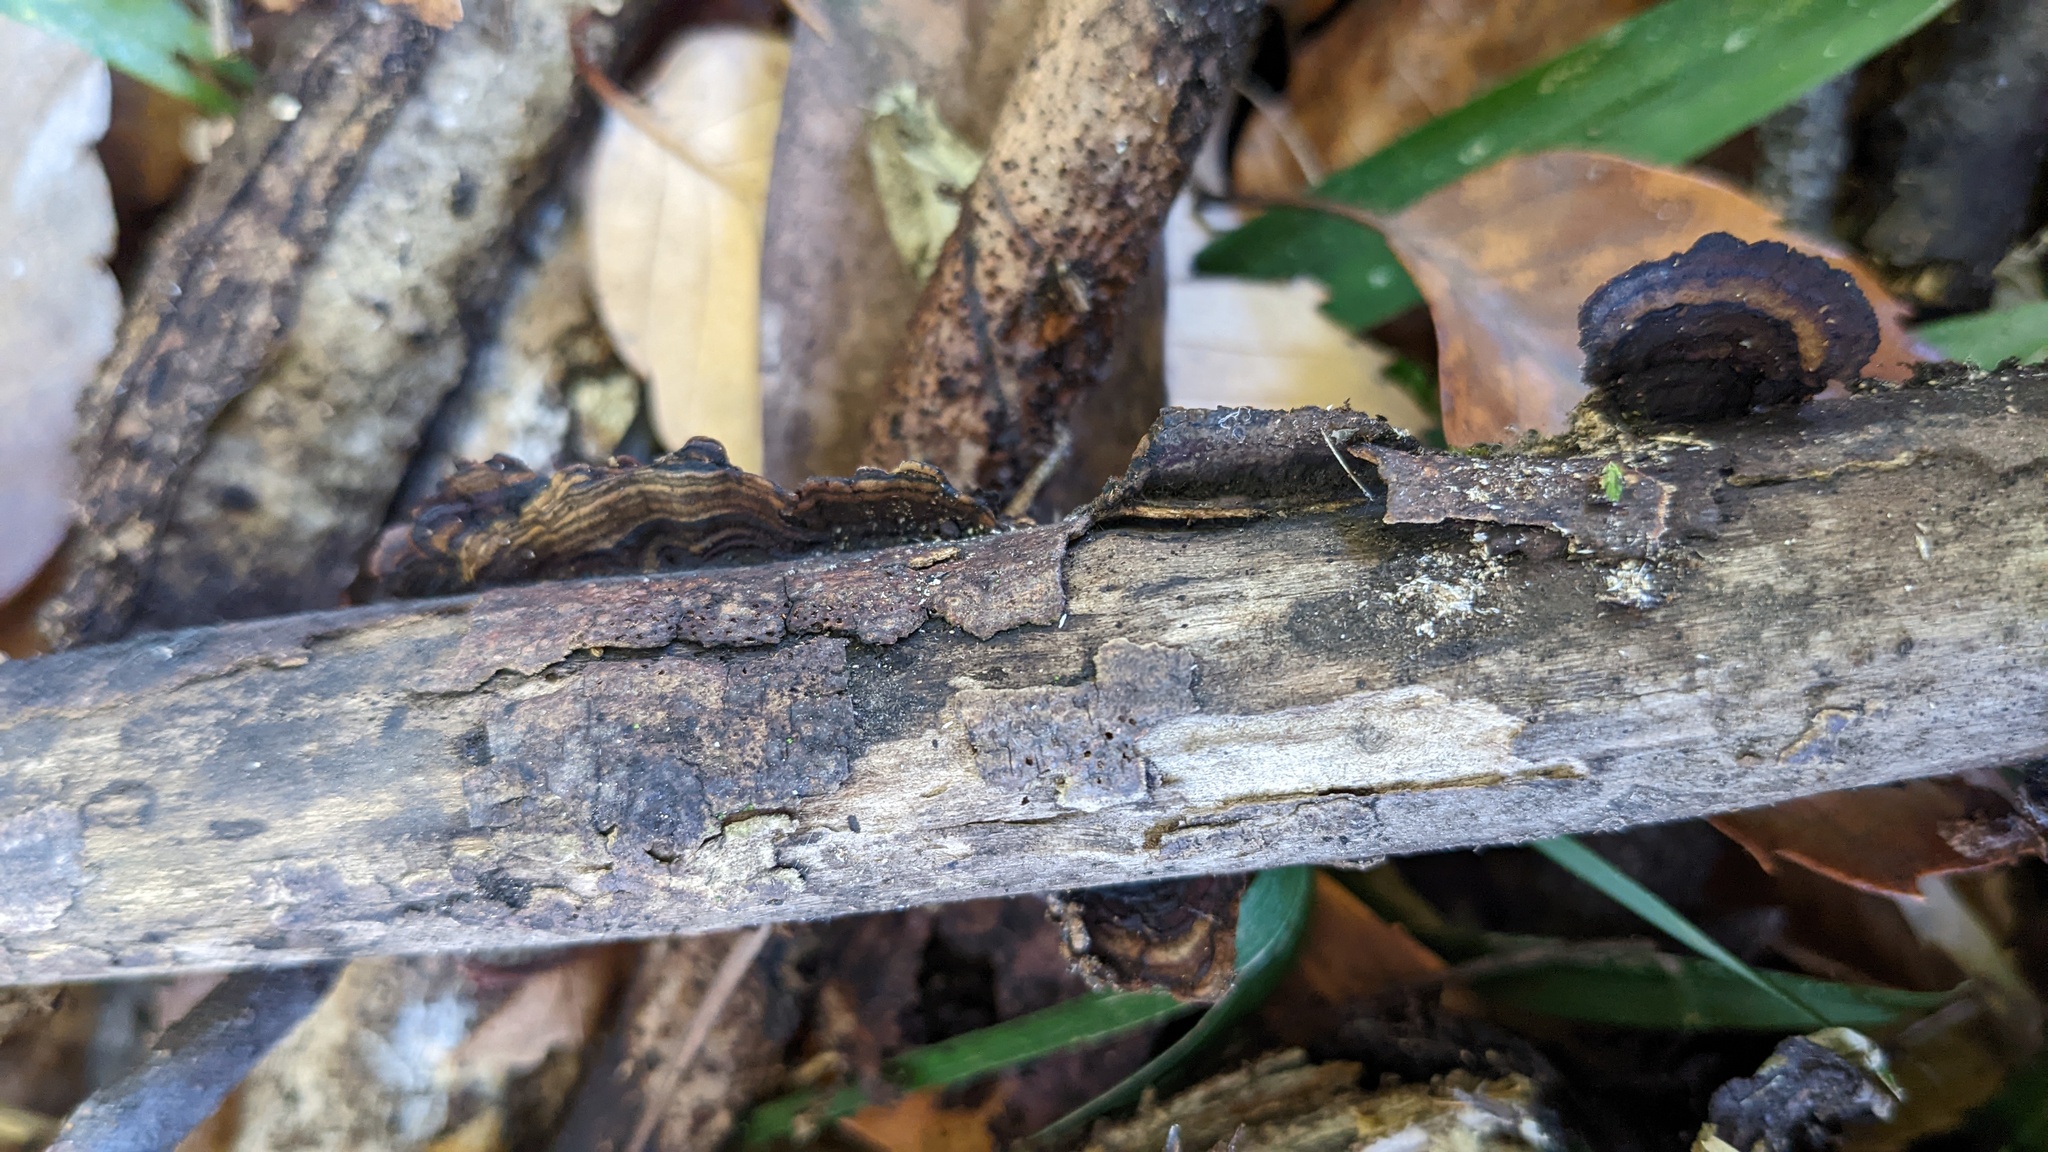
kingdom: Fungi
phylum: Basidiomycota
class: Agaricomycetes
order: Polyporales
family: Polyporaceae
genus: Lenzites
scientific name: Lenzites styracinus
